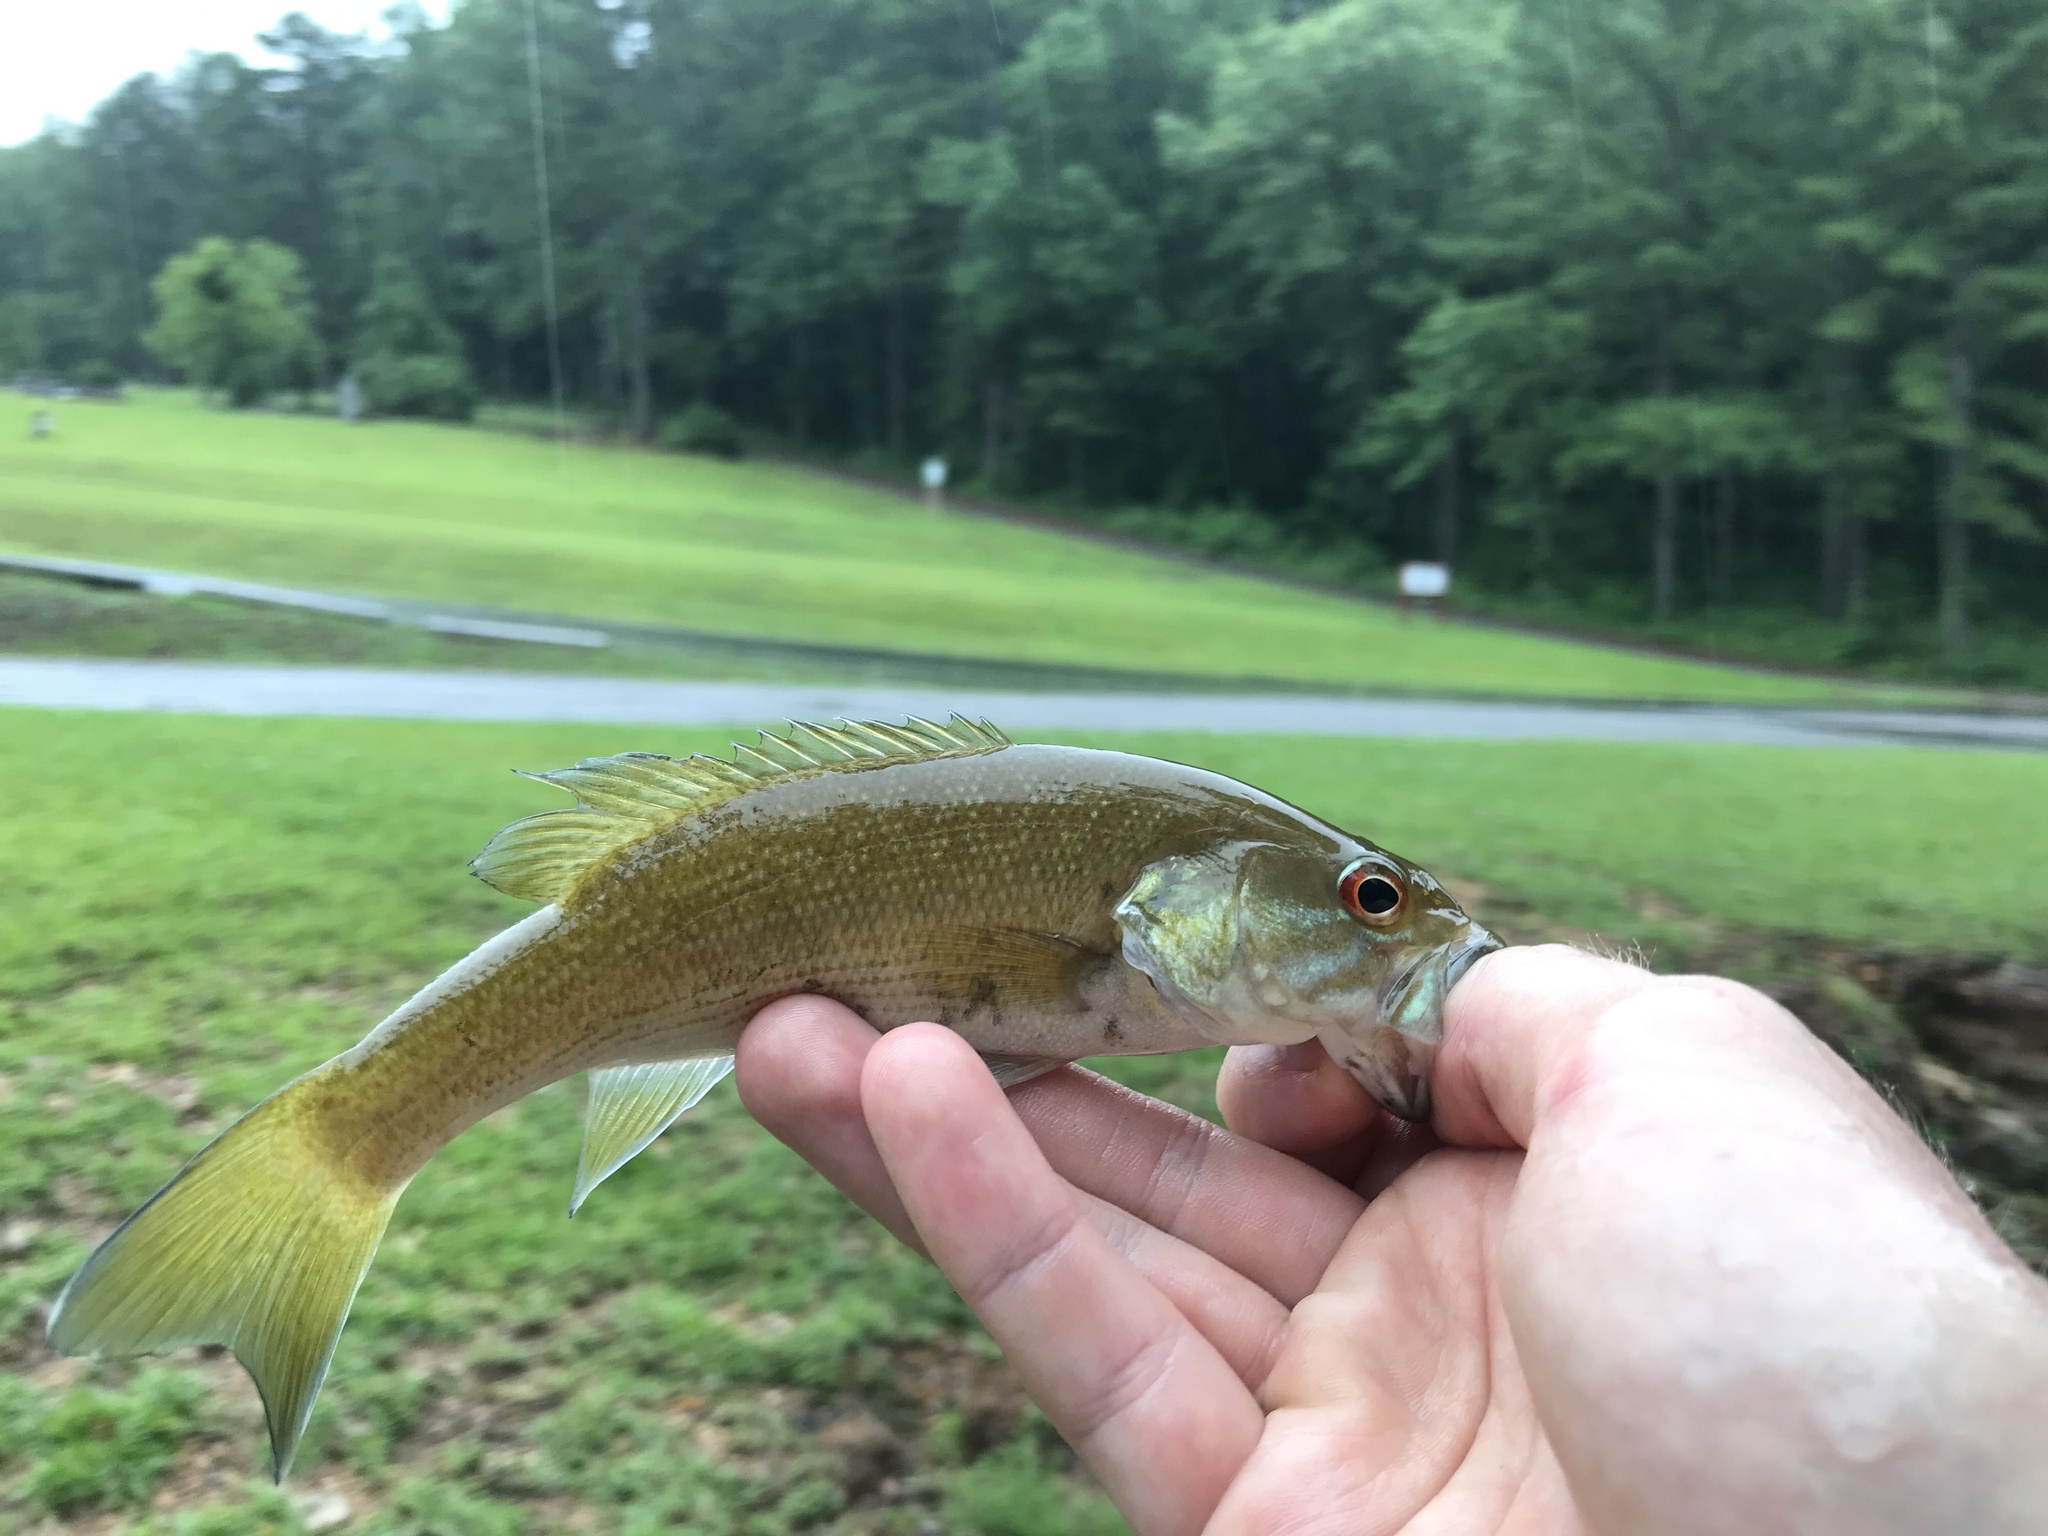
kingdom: Animalia
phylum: Chordata
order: Perciformes
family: Centrarchidae
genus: Micropterus
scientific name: Micropterus cahabae
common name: Cahaba bass
